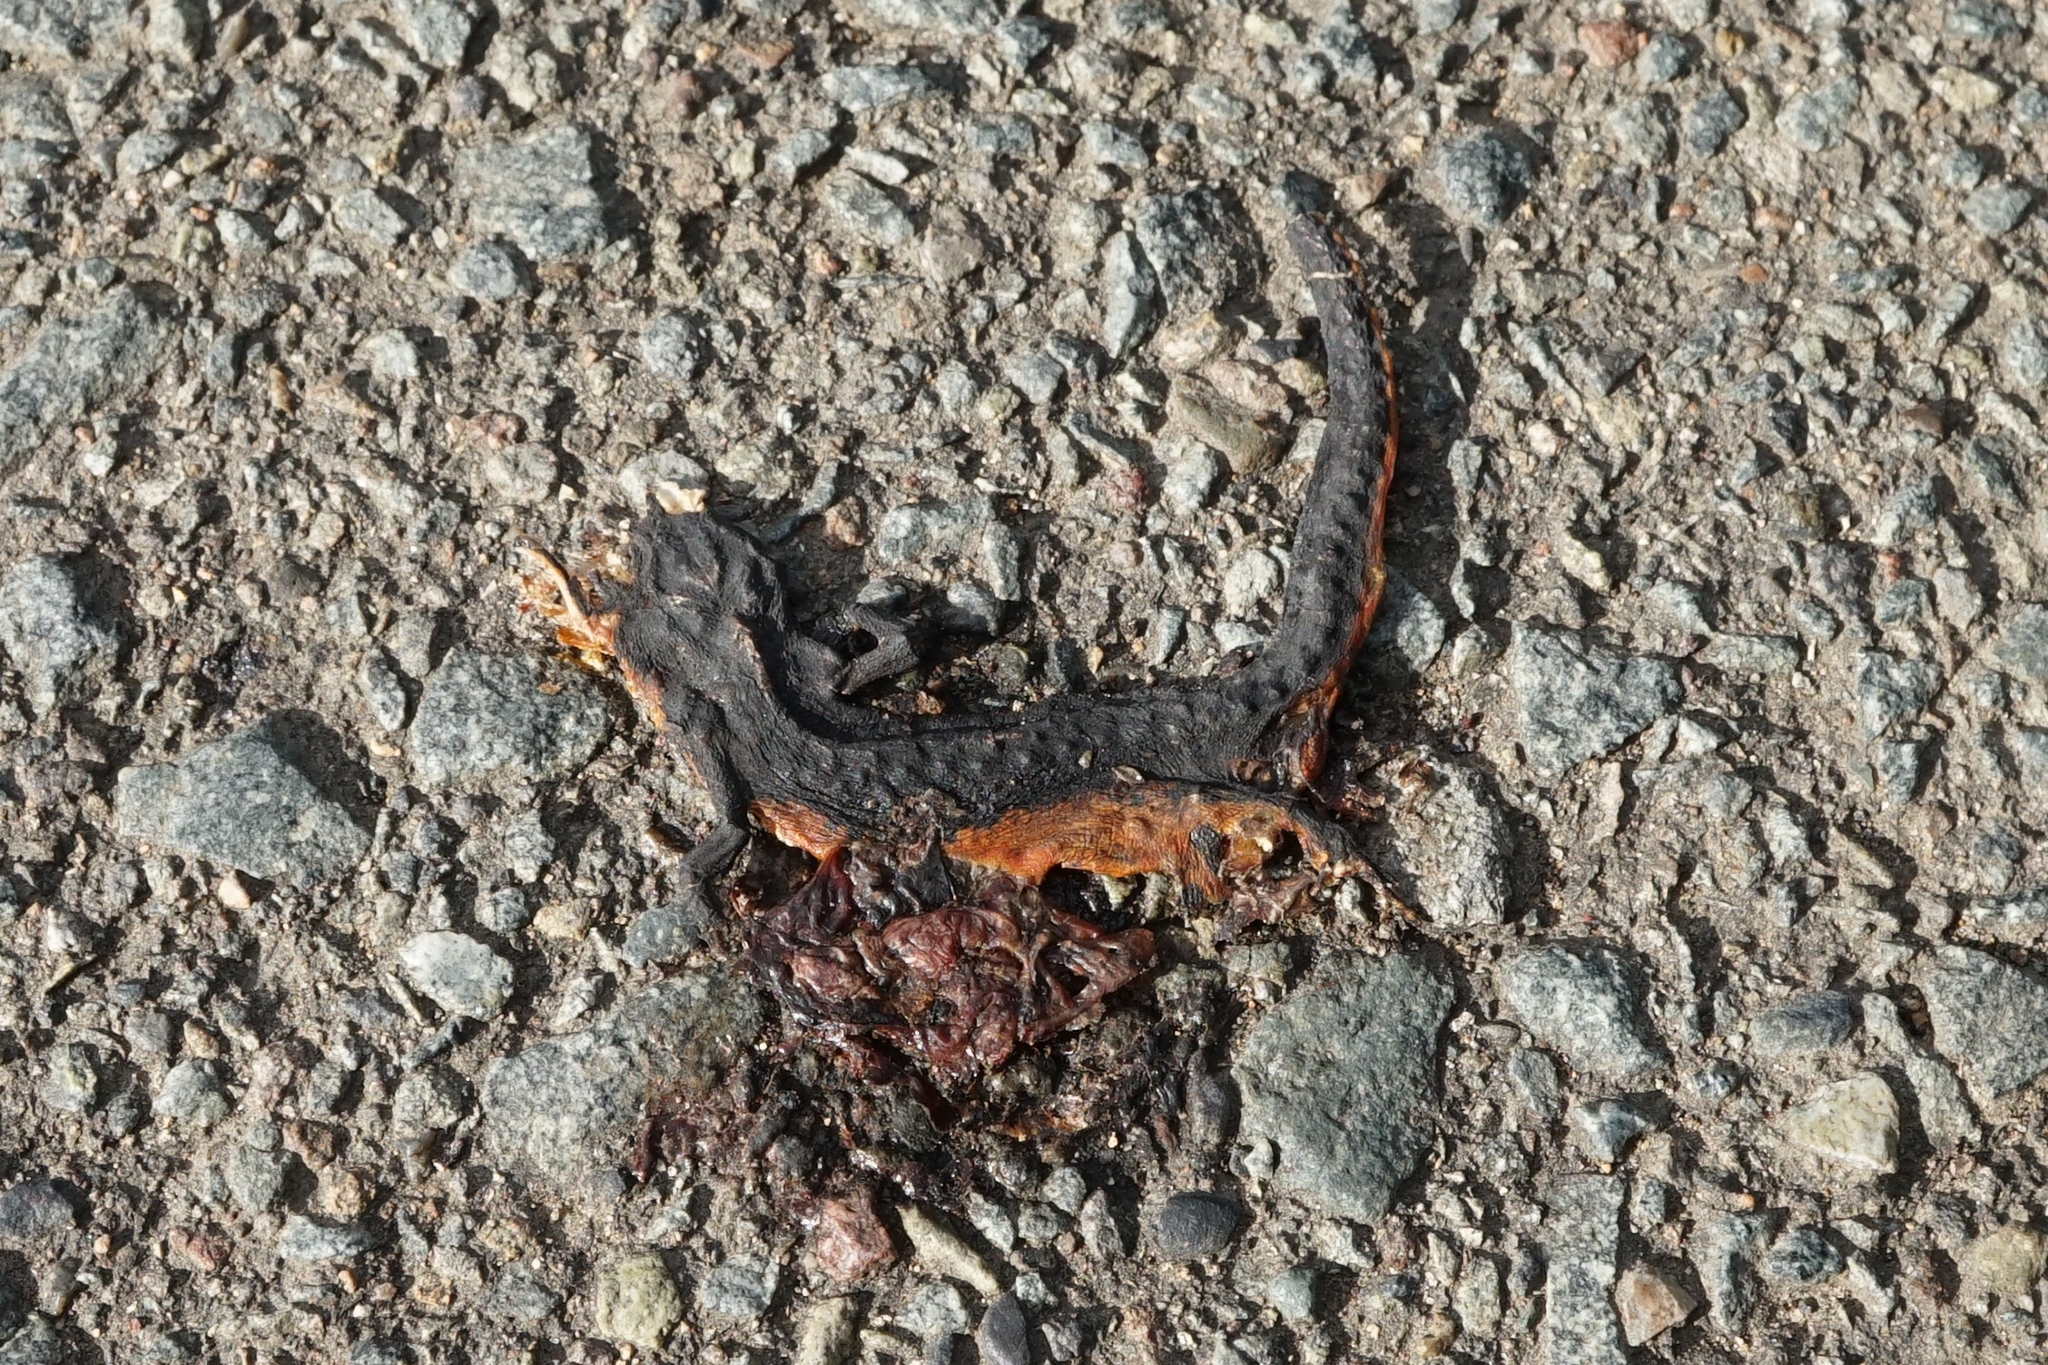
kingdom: Animalia
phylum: Chordata
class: Amphibia
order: Caudata
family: Salamandridae
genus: Cynops
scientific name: Cynops pyrrhogaster
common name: Japanese fire-bellied newt
